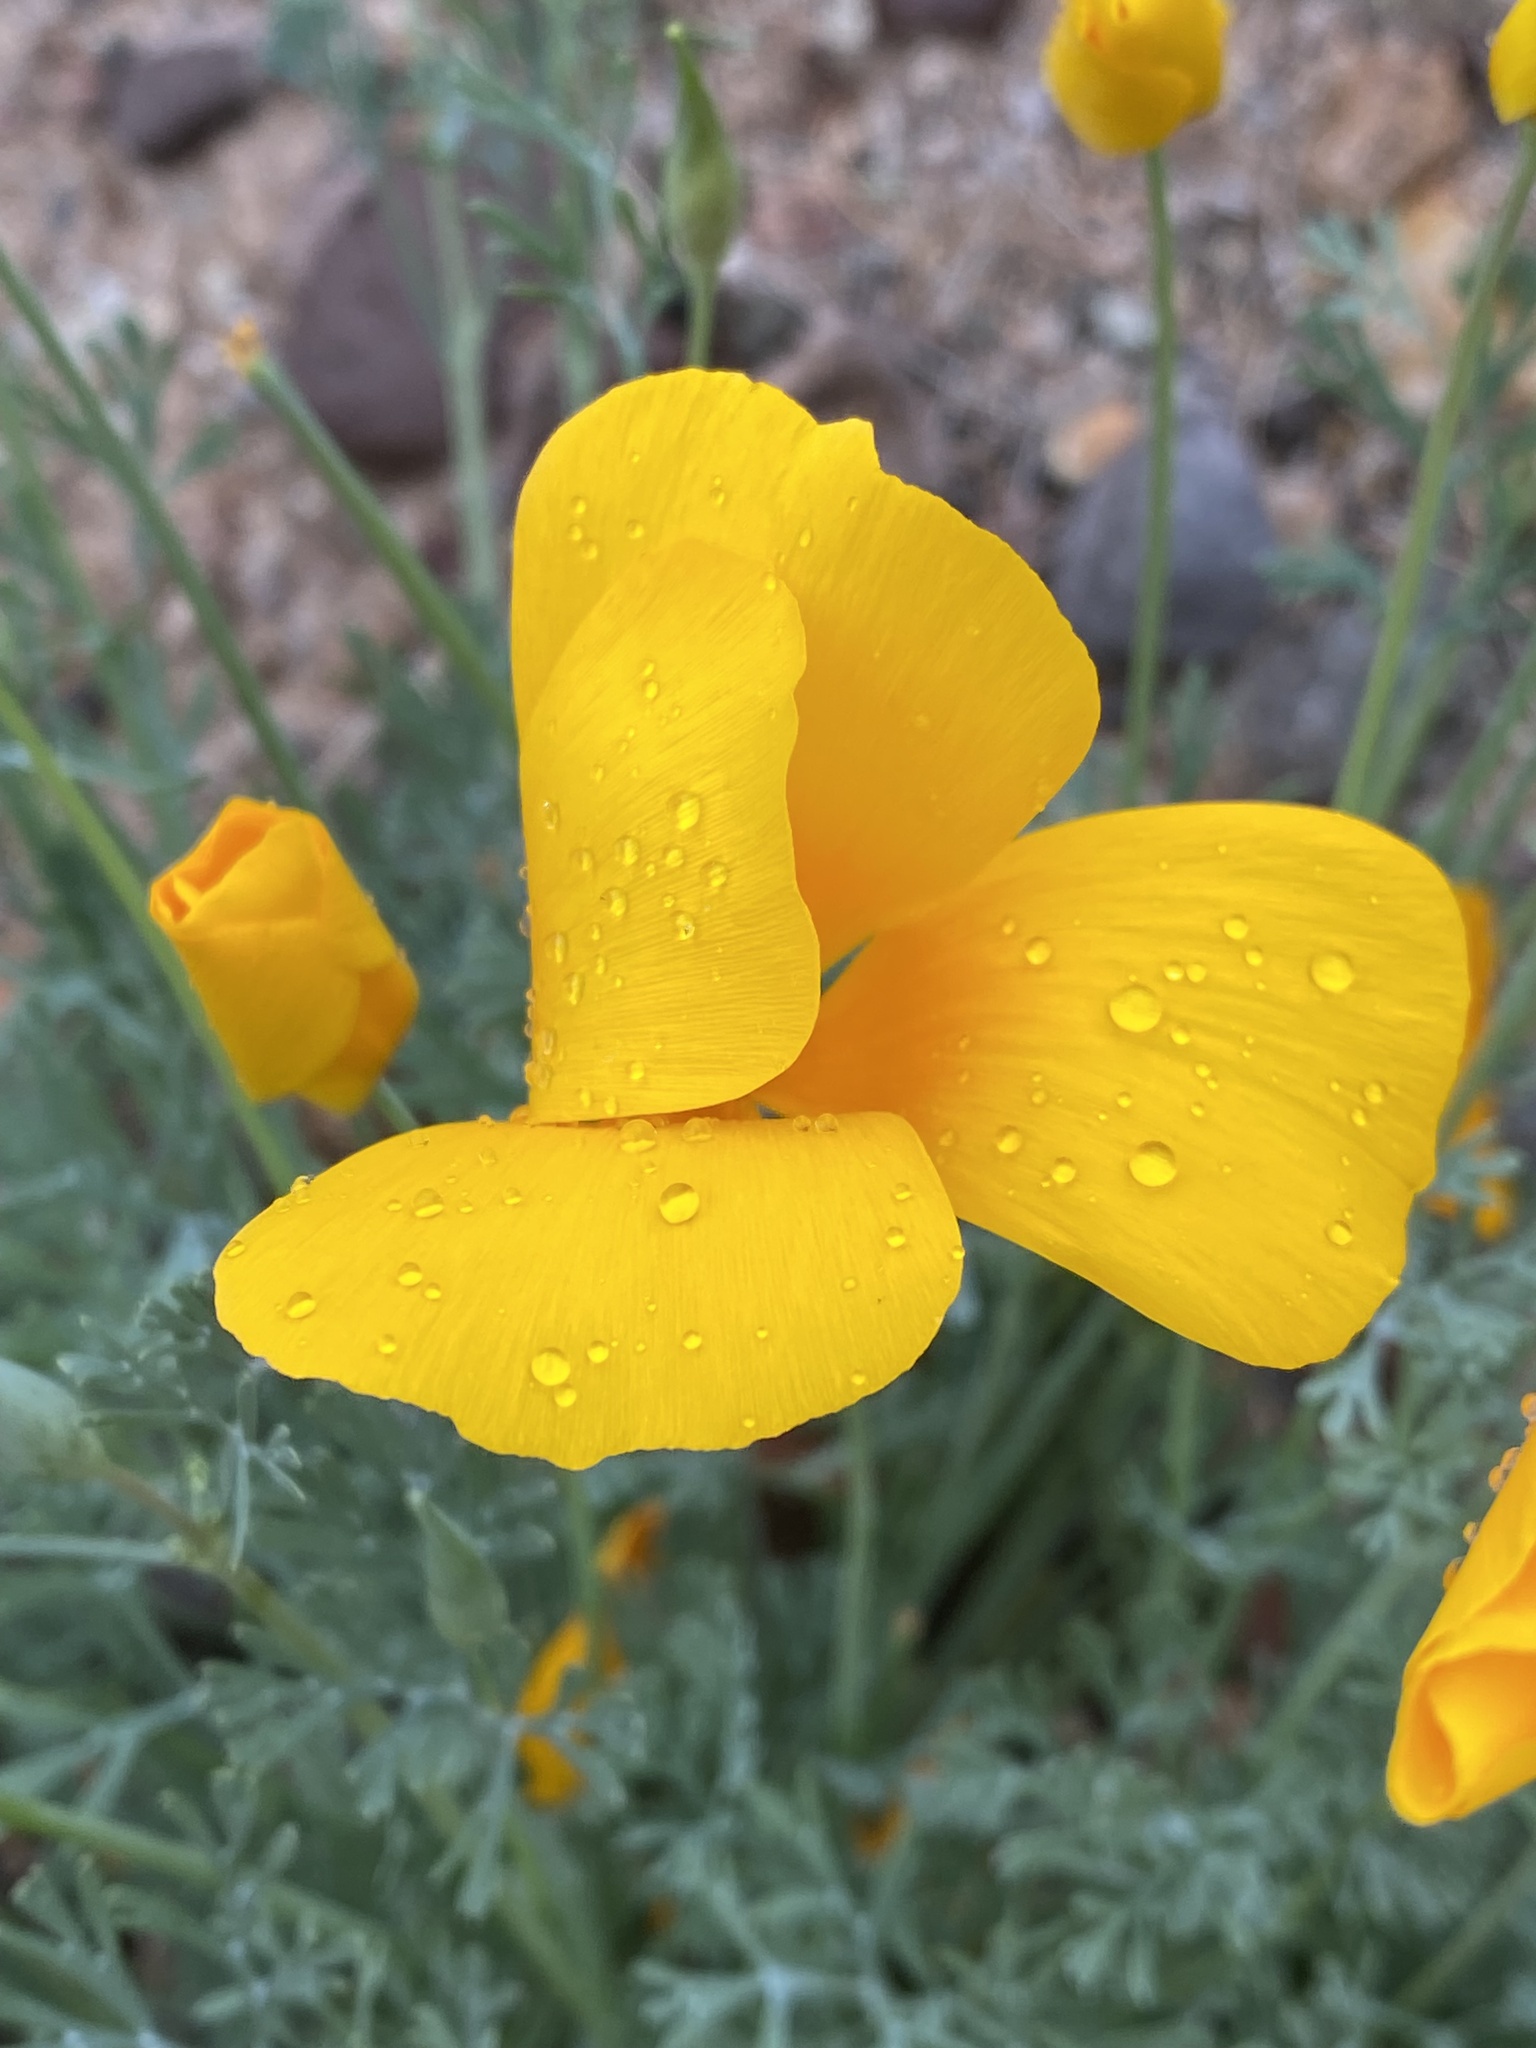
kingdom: Plantae
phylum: Tracheophyta
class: Magnoliopsida
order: Ranunculales
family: Papaveraceae
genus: Eschscholzia
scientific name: Eschscholzia californica
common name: California poppy
